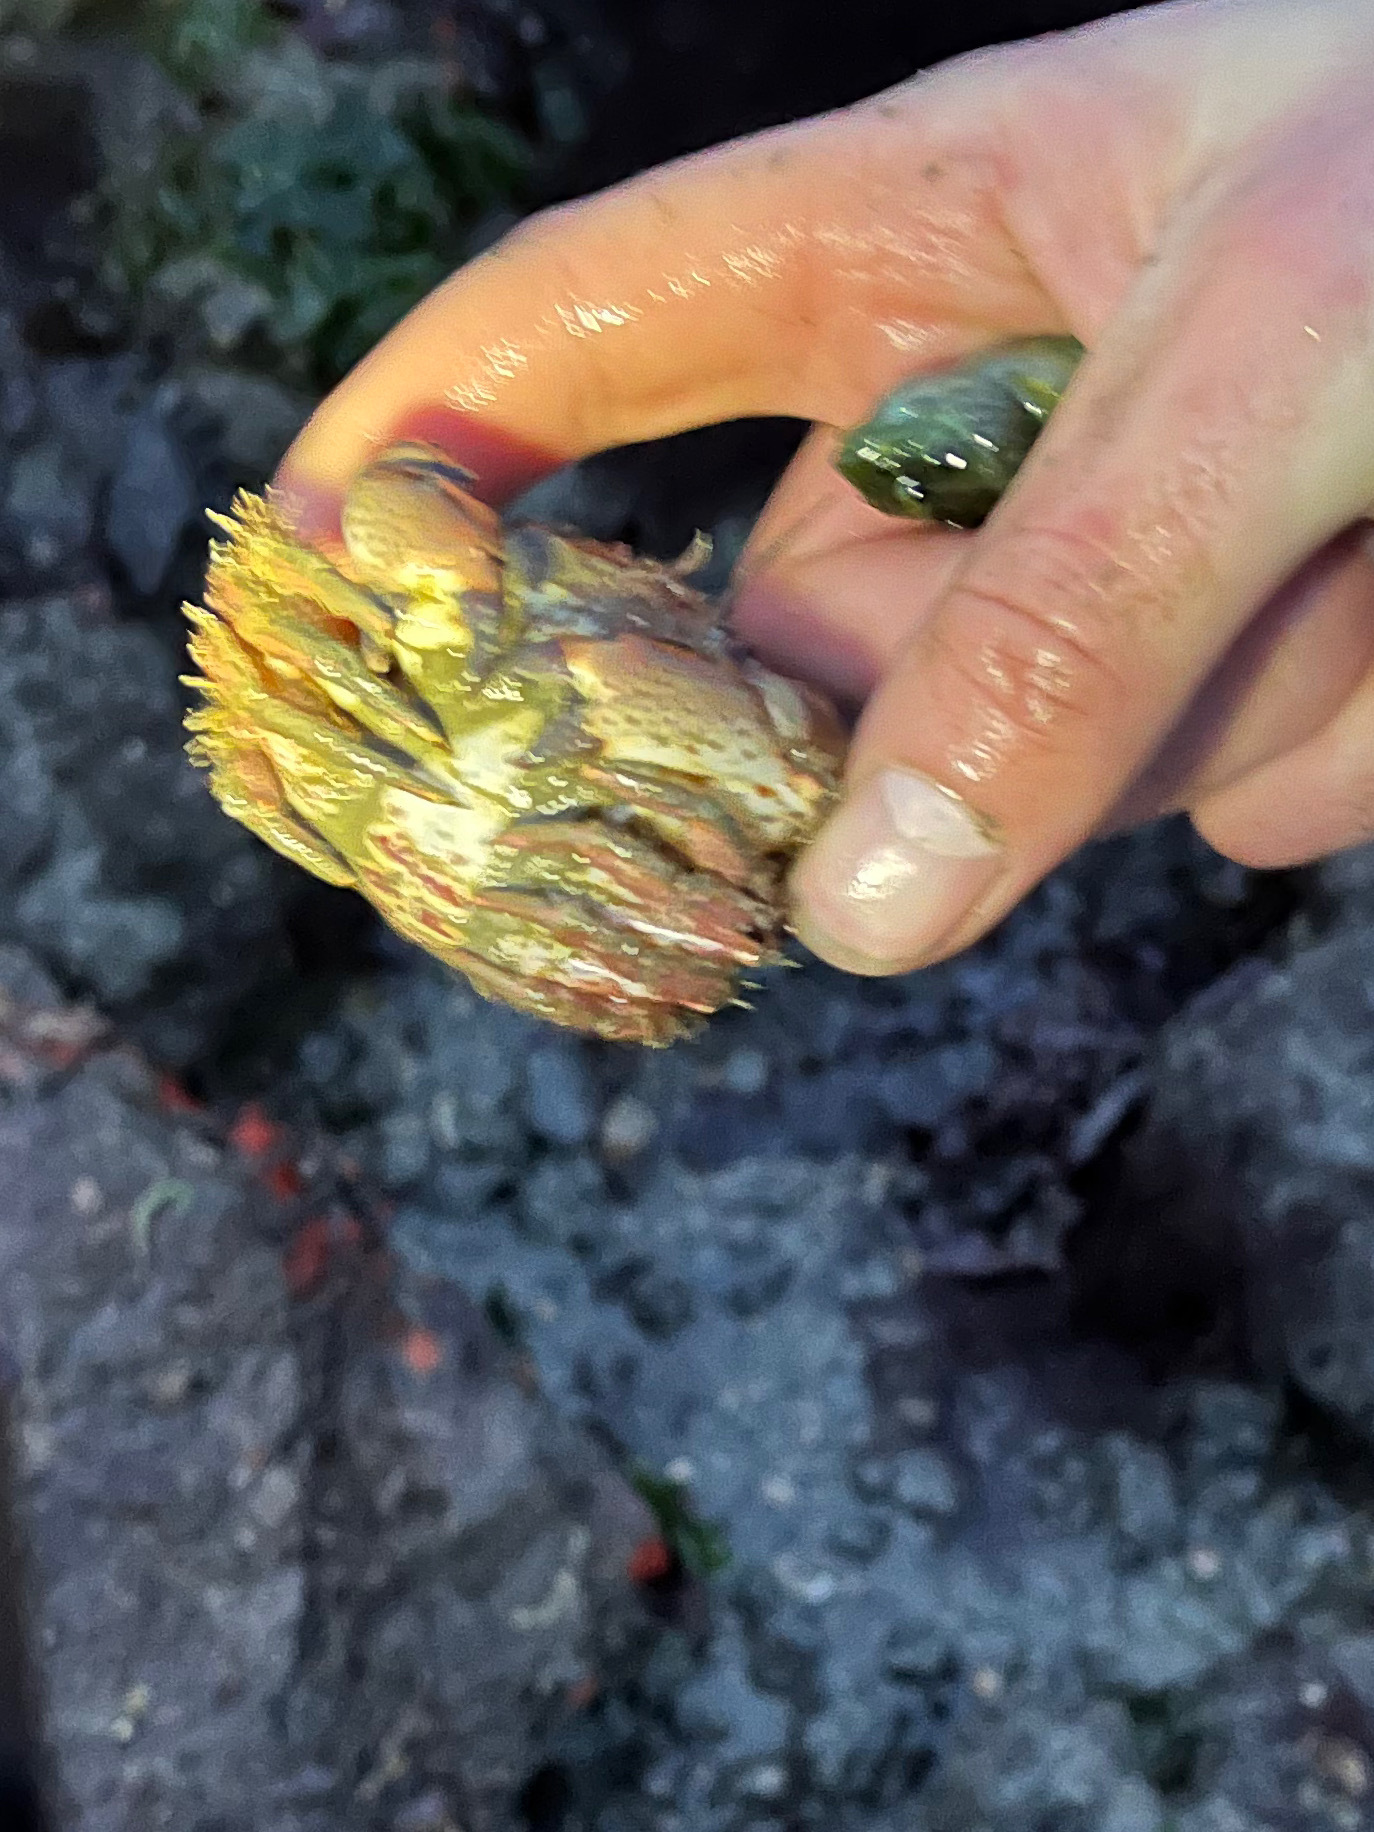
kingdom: Animalia
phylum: Arthropoda
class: Malacostraca
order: Decapoda
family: Cancridae
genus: Romaleon
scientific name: Romaleon antennarium
